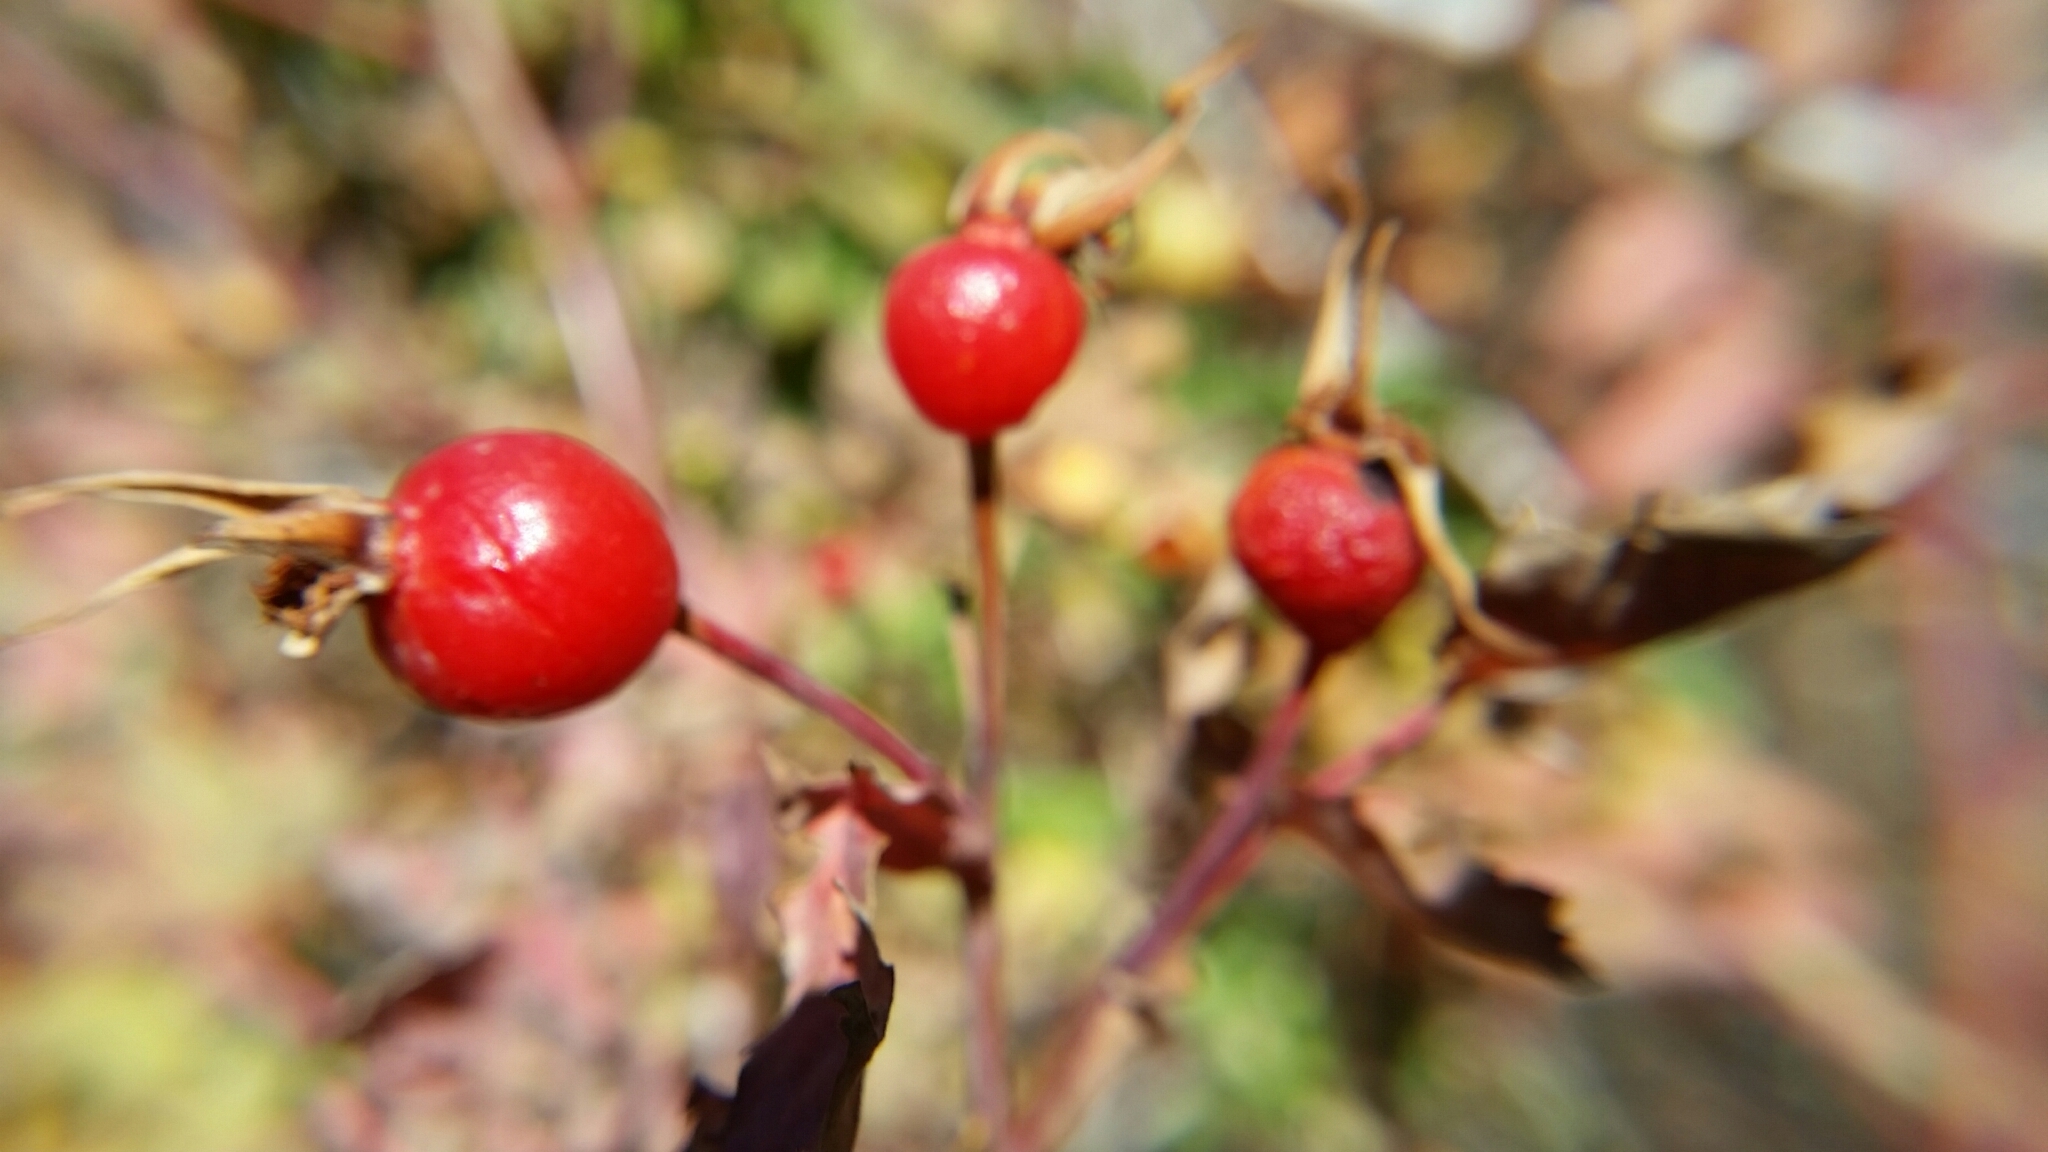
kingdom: Plantae
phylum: Tracheophyta
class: Magnoliopsida
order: Rosales
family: Rosaceae
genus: Rosa
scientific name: Rosa woodsii
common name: Woods's rose
